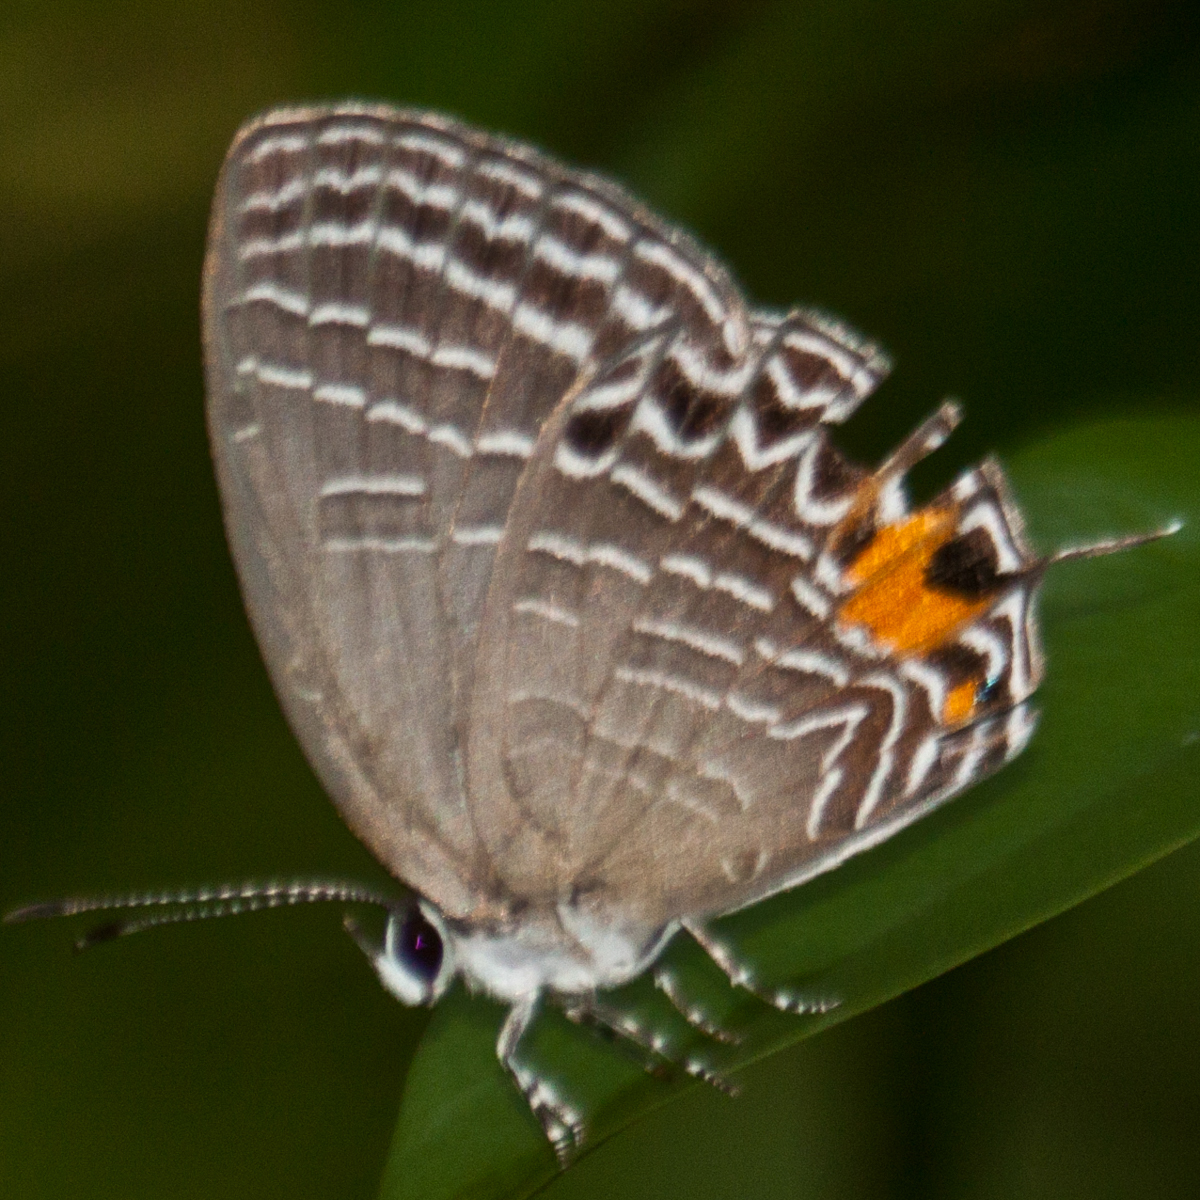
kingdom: Animalia
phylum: Arthropoda
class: Insecta
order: Lepidoptera
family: Lycaenidae
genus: Jamides
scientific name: Jamides
